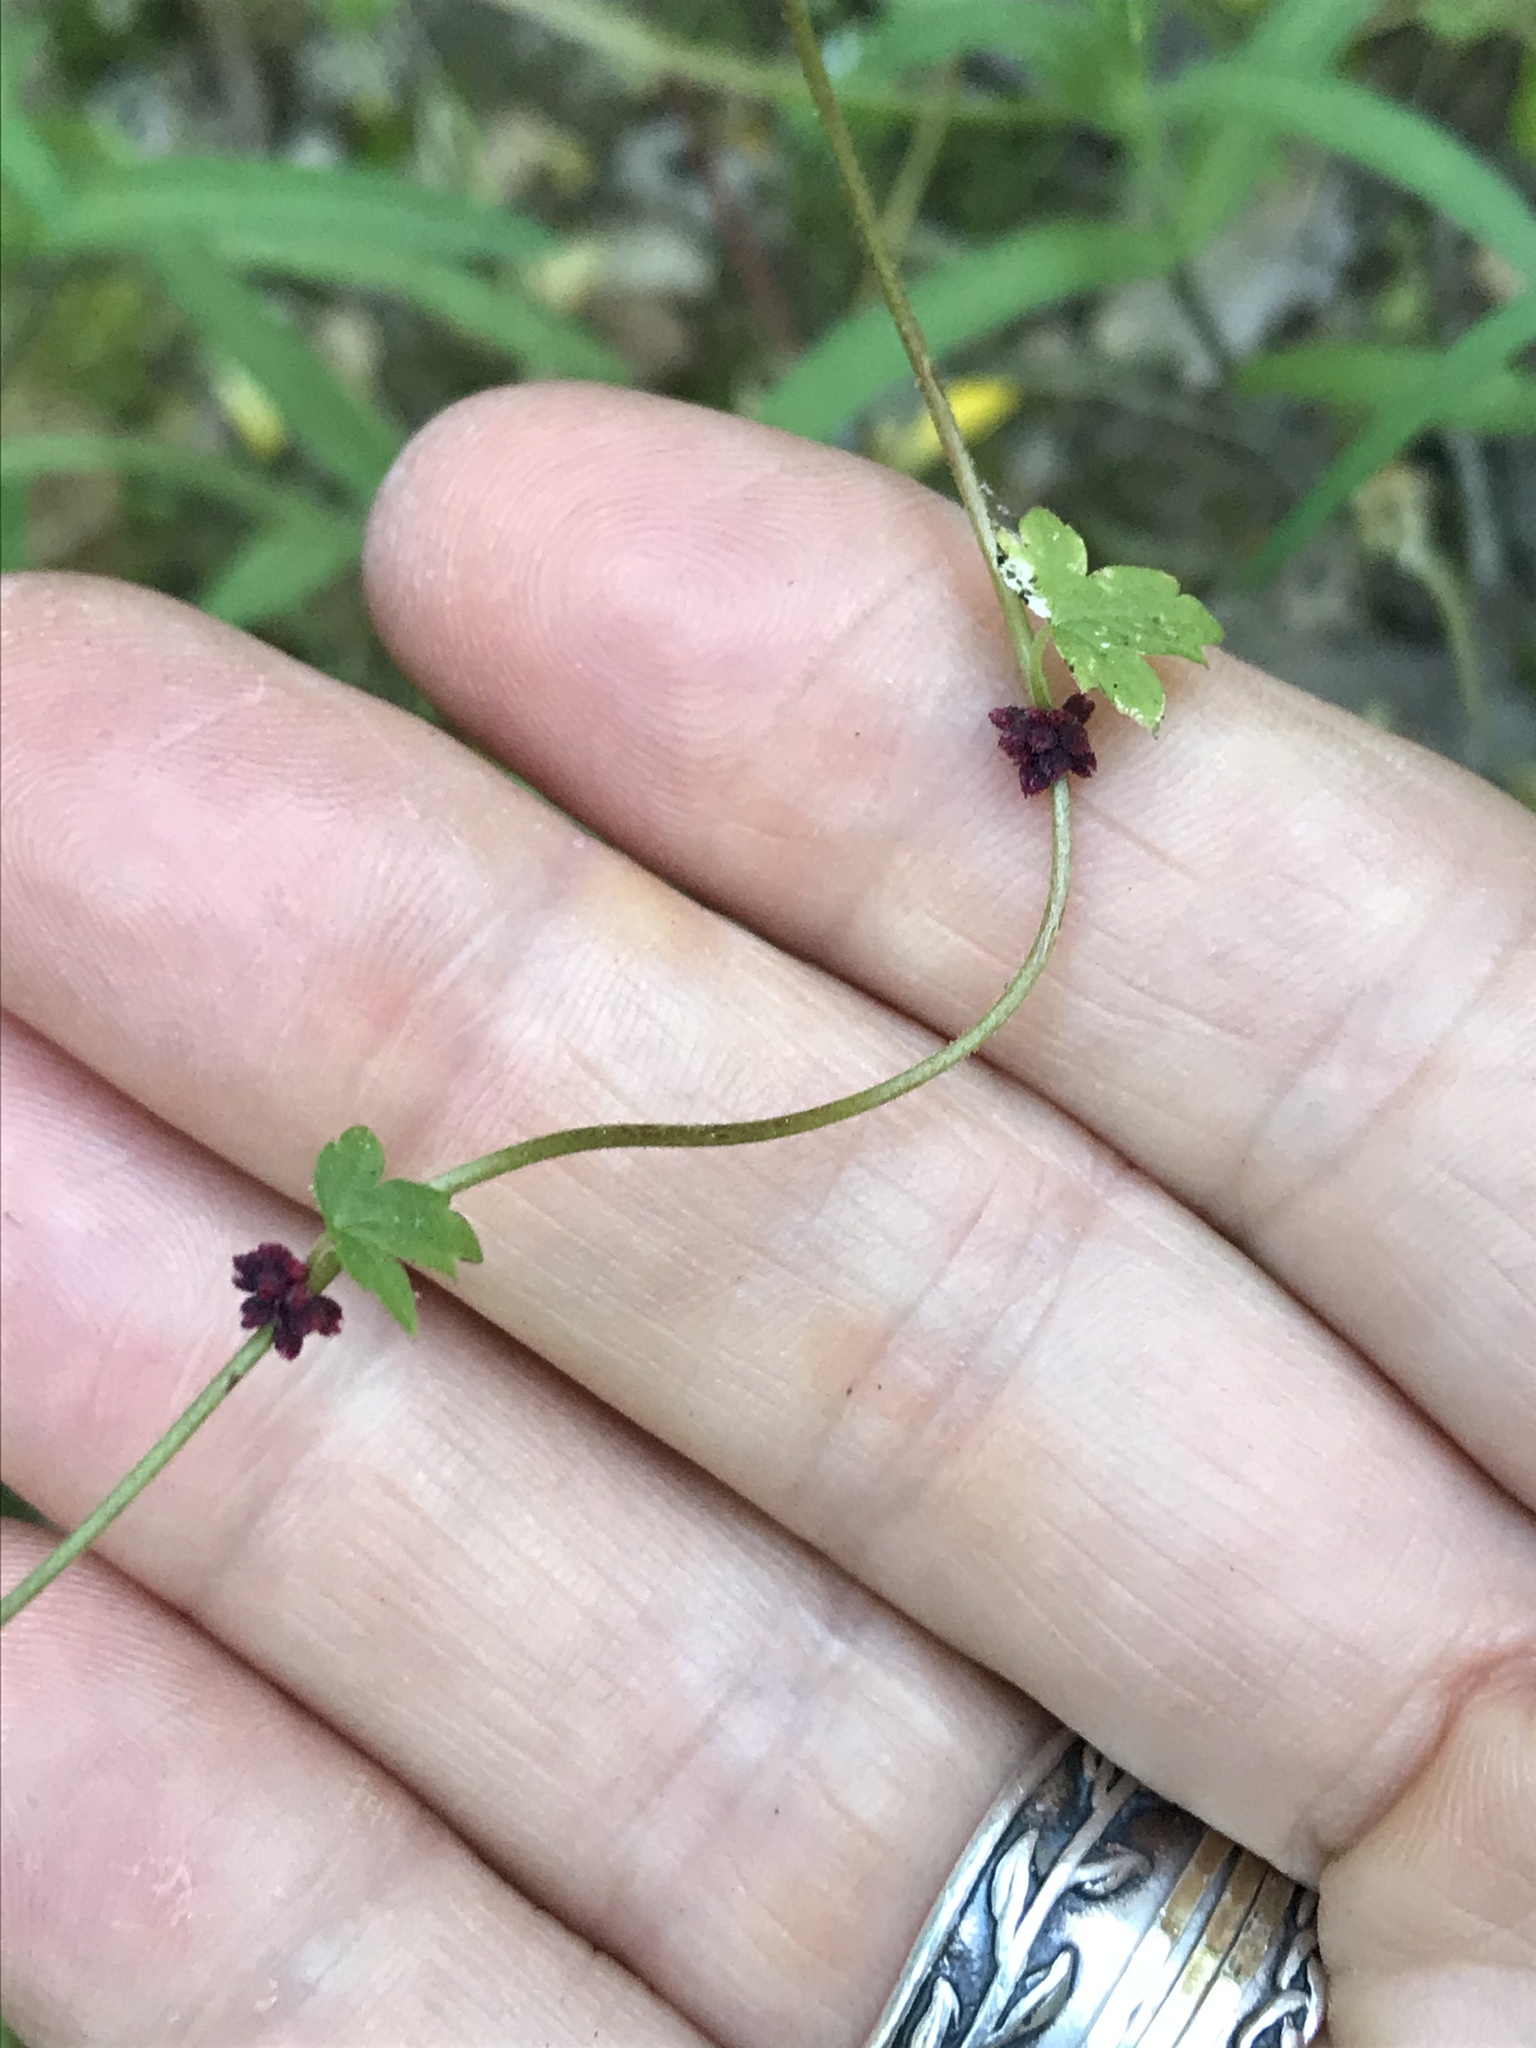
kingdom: Plantae
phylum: Tracheophyta
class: Magnoliopsida
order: Saxifragales
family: Saxifragaceae
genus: Lithophragma
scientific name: Lithophragma heterophyllum
